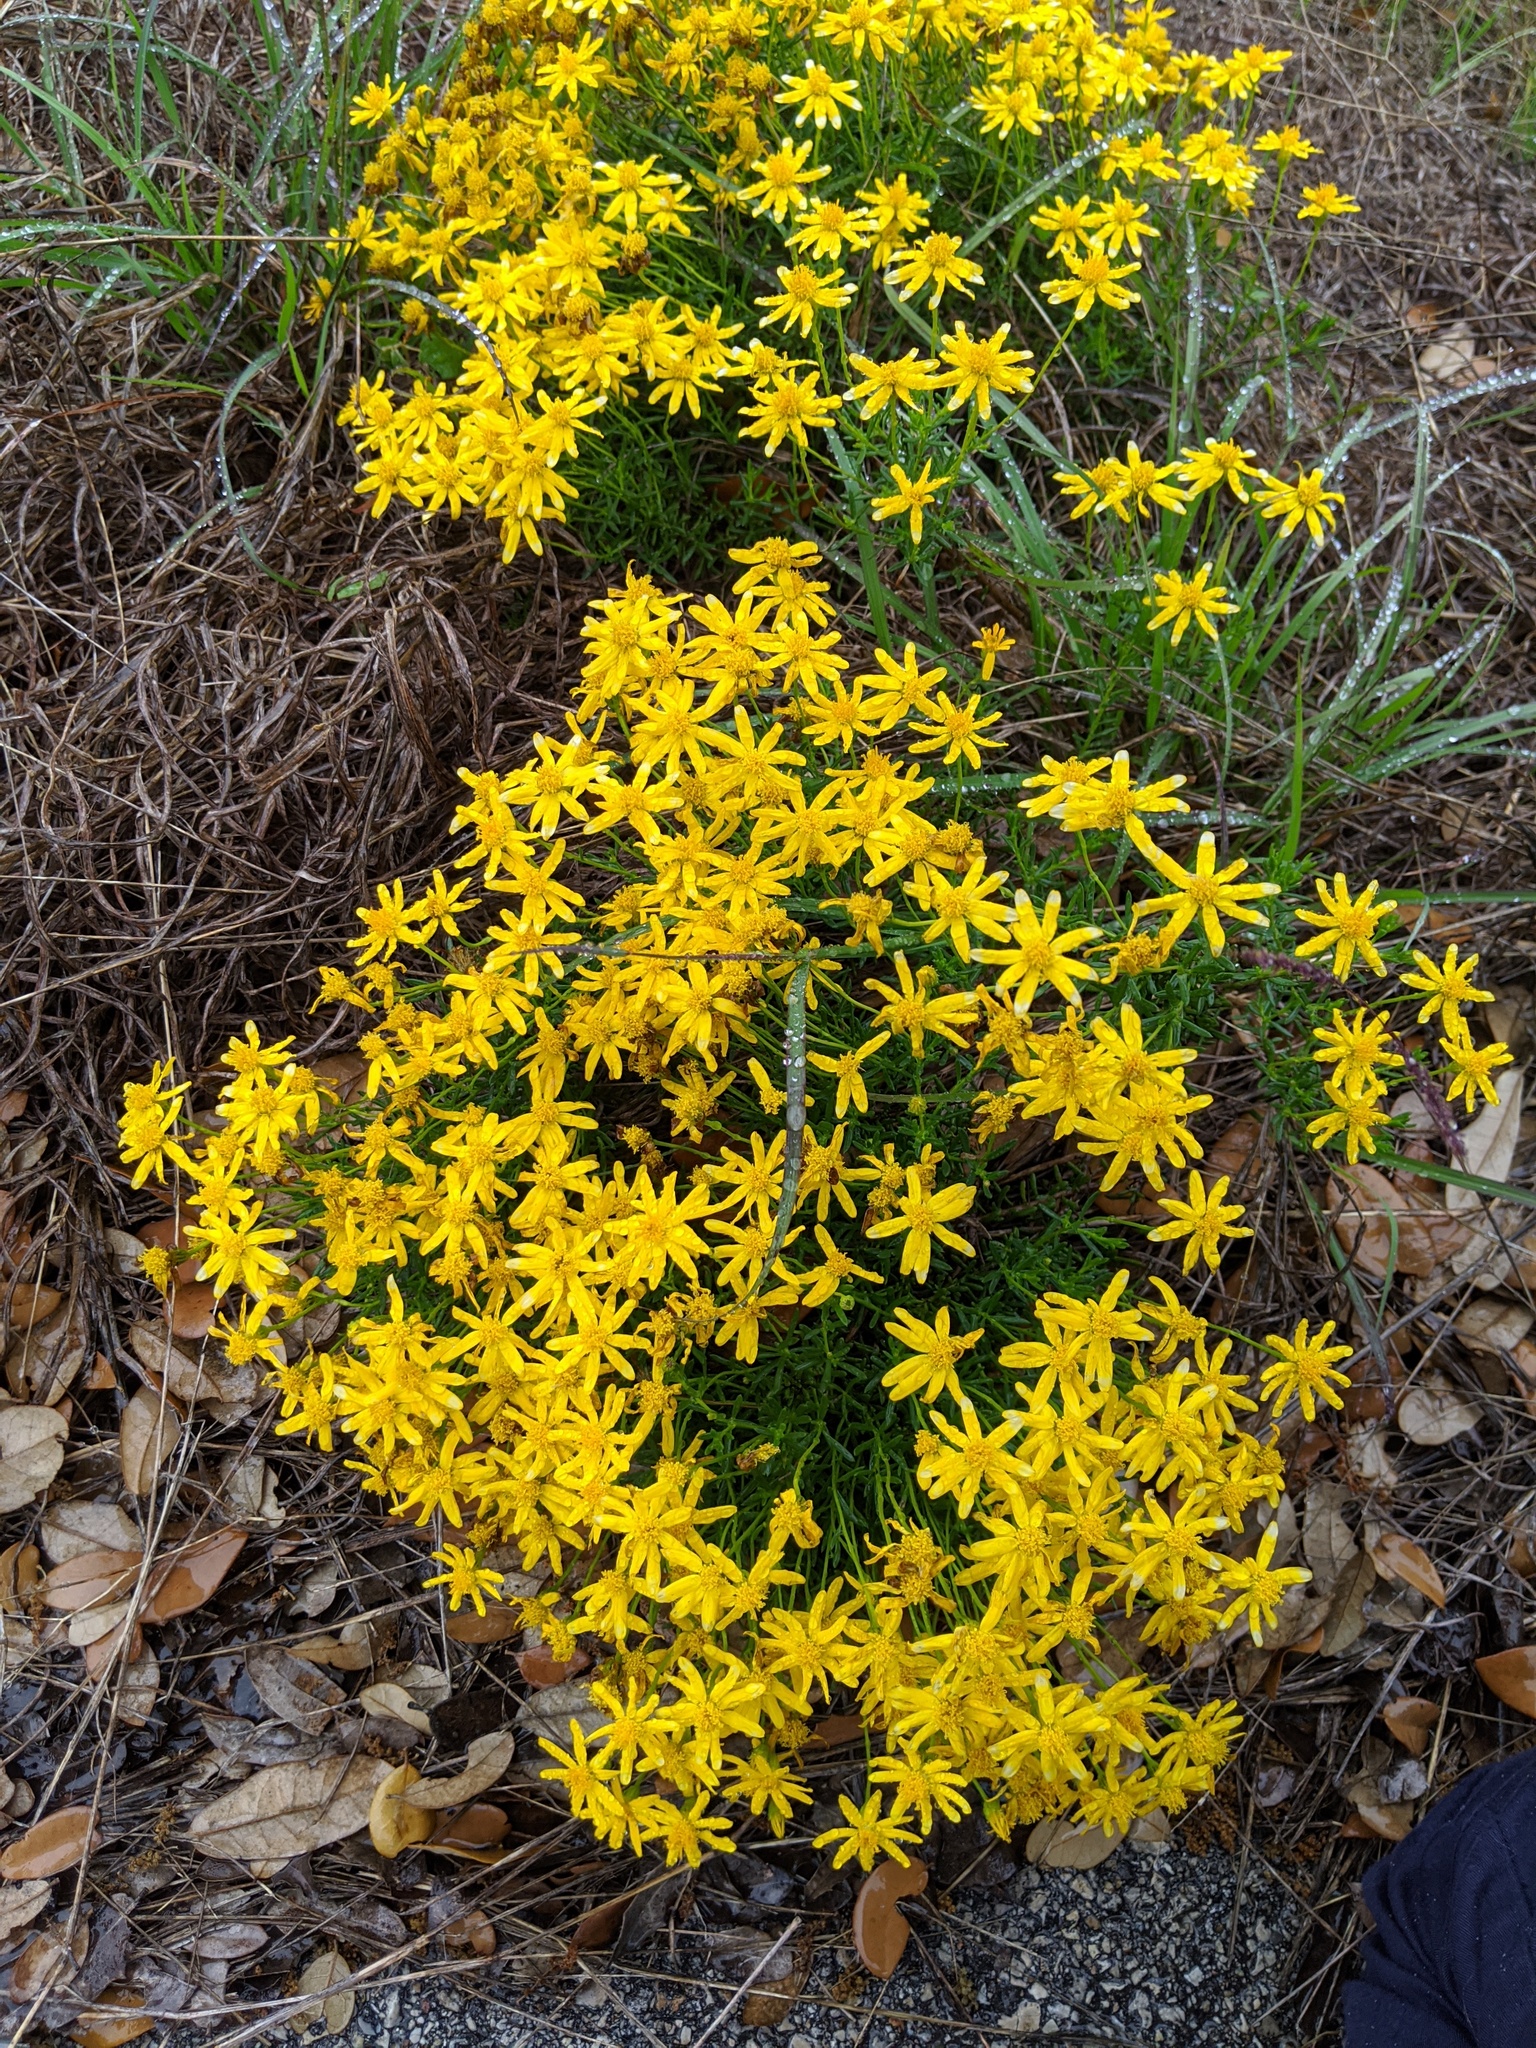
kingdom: Plantae
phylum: Tracheophyta
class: Magnoliopsida
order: Asterales
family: Asteraceae
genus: Chrysactinia
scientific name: Chrysactinia mexicana
